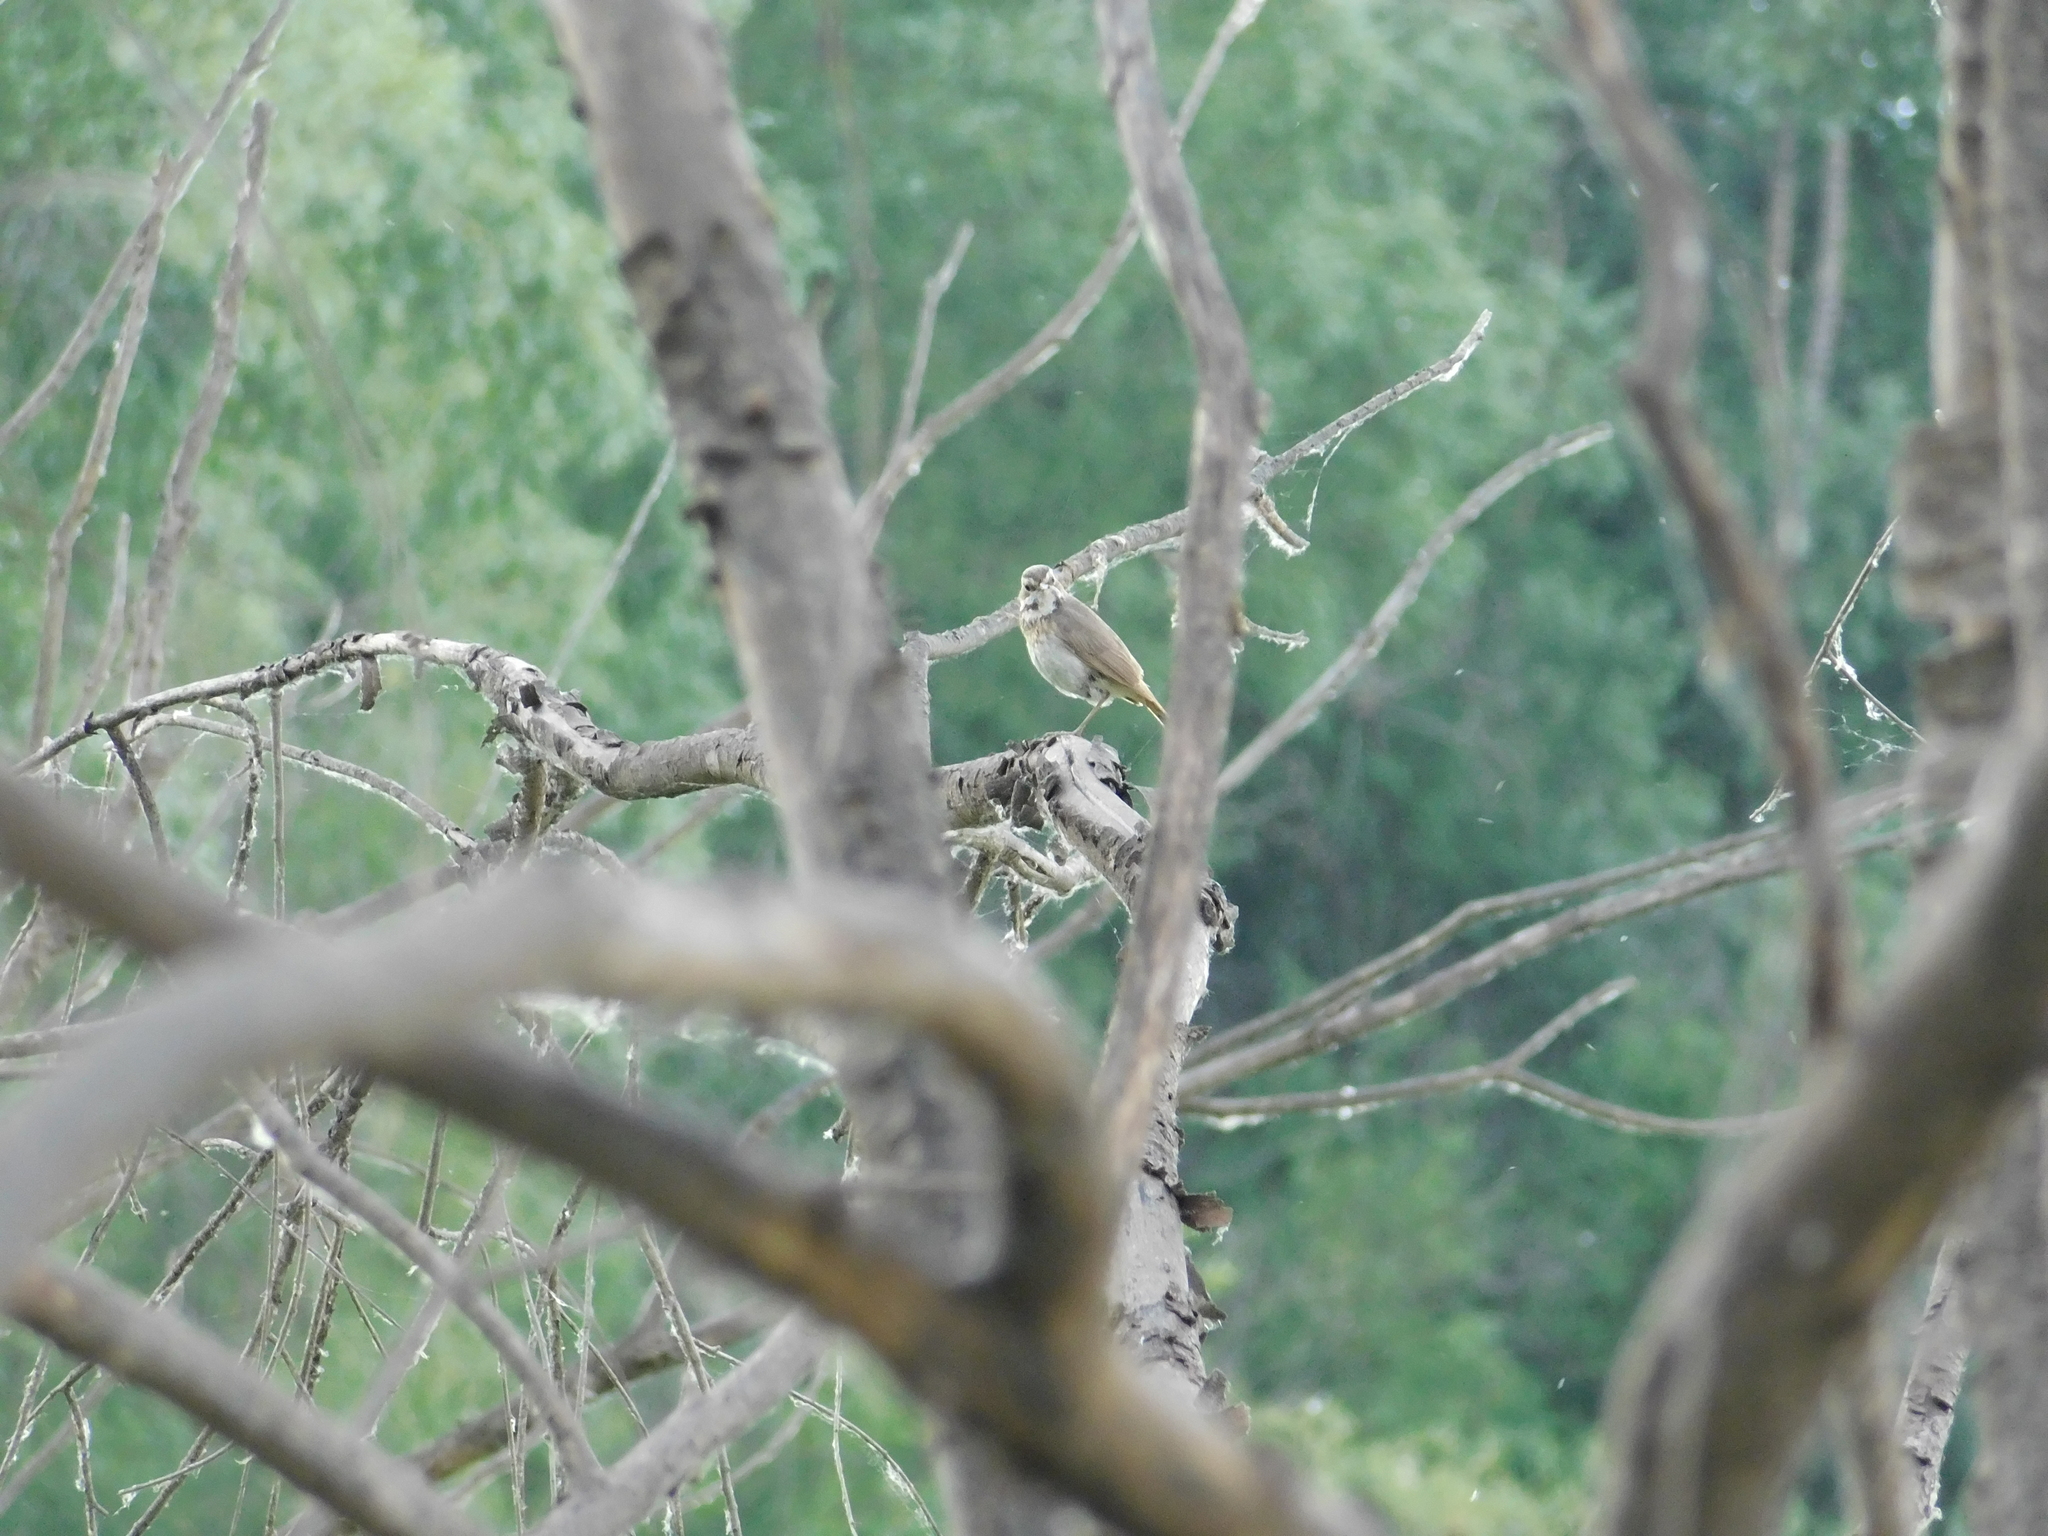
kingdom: Animalia
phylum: Chordata
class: Aves
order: Passeriformes
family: Muscicapidae
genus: Luscinia
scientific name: Luscinia svecica
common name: Bluethroat
